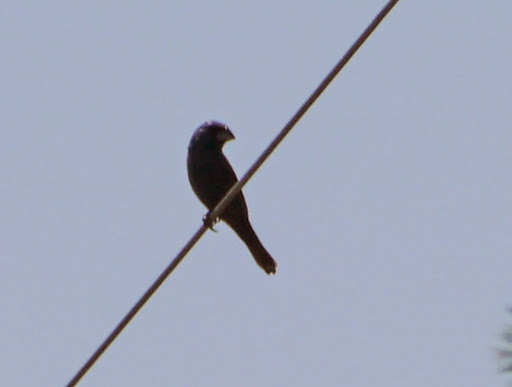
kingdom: Animalia
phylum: Chordata
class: Aves
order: Passeriformes
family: Cardinalidae
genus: Passerina
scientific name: Passerina caerulea
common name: Blue grosbeak
